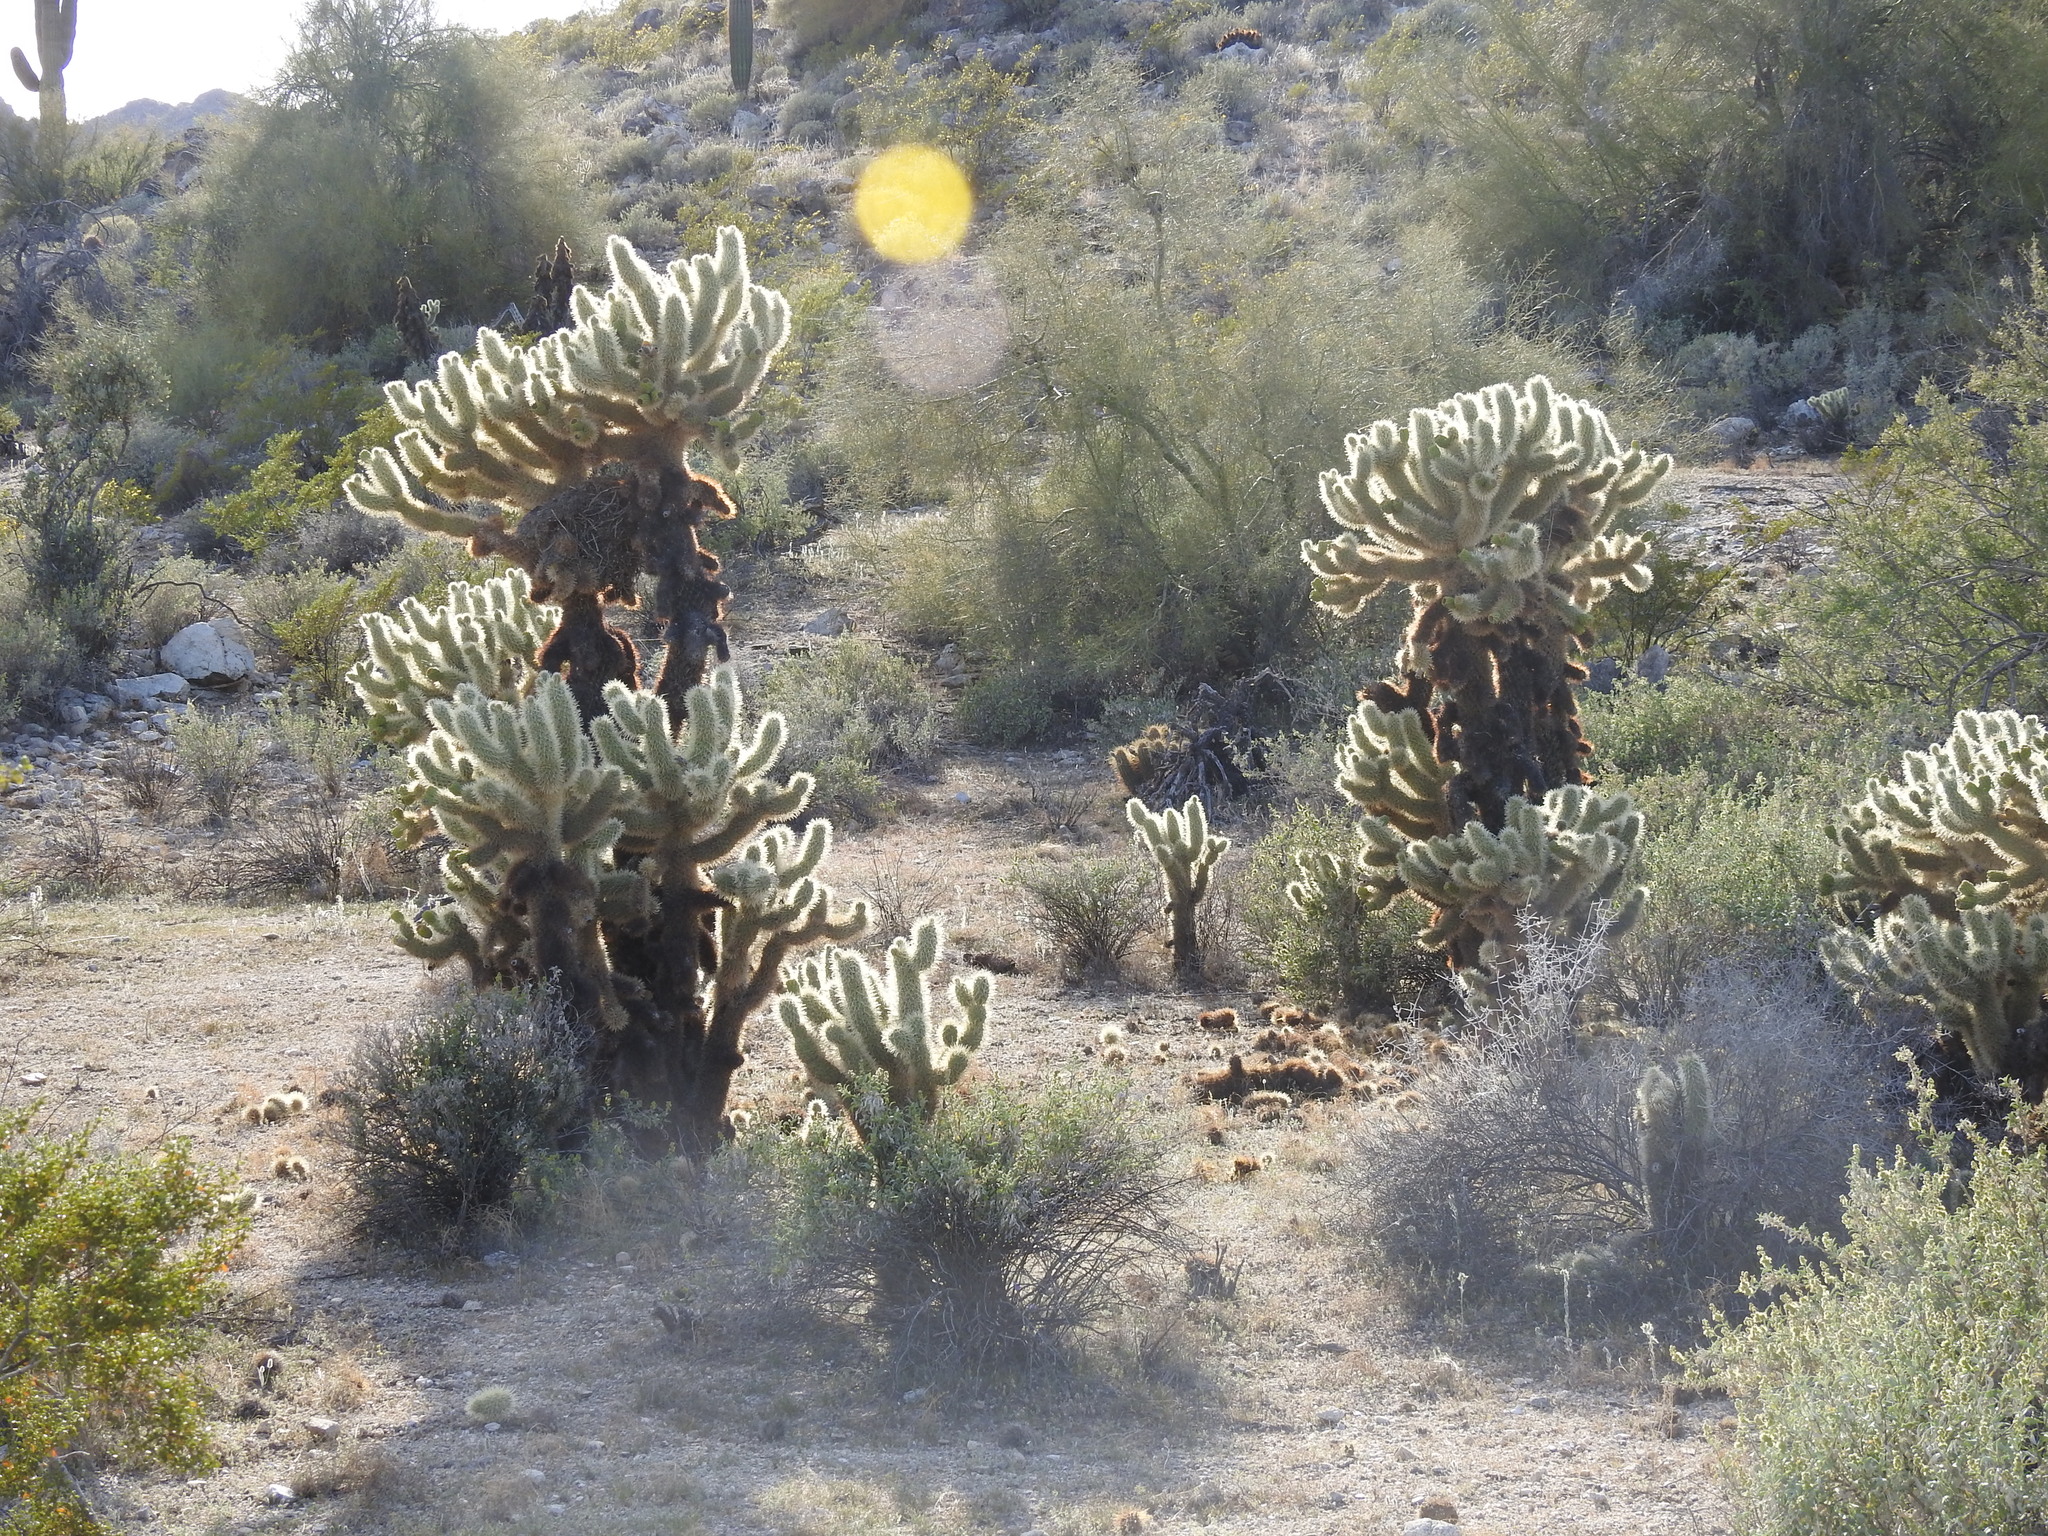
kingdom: Plantae
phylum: Tracheophyta
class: Magnoliopsida
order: Caryophyllales
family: Cactaceae
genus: Cylindropuntia
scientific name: Cylindropuntia fosbergii
